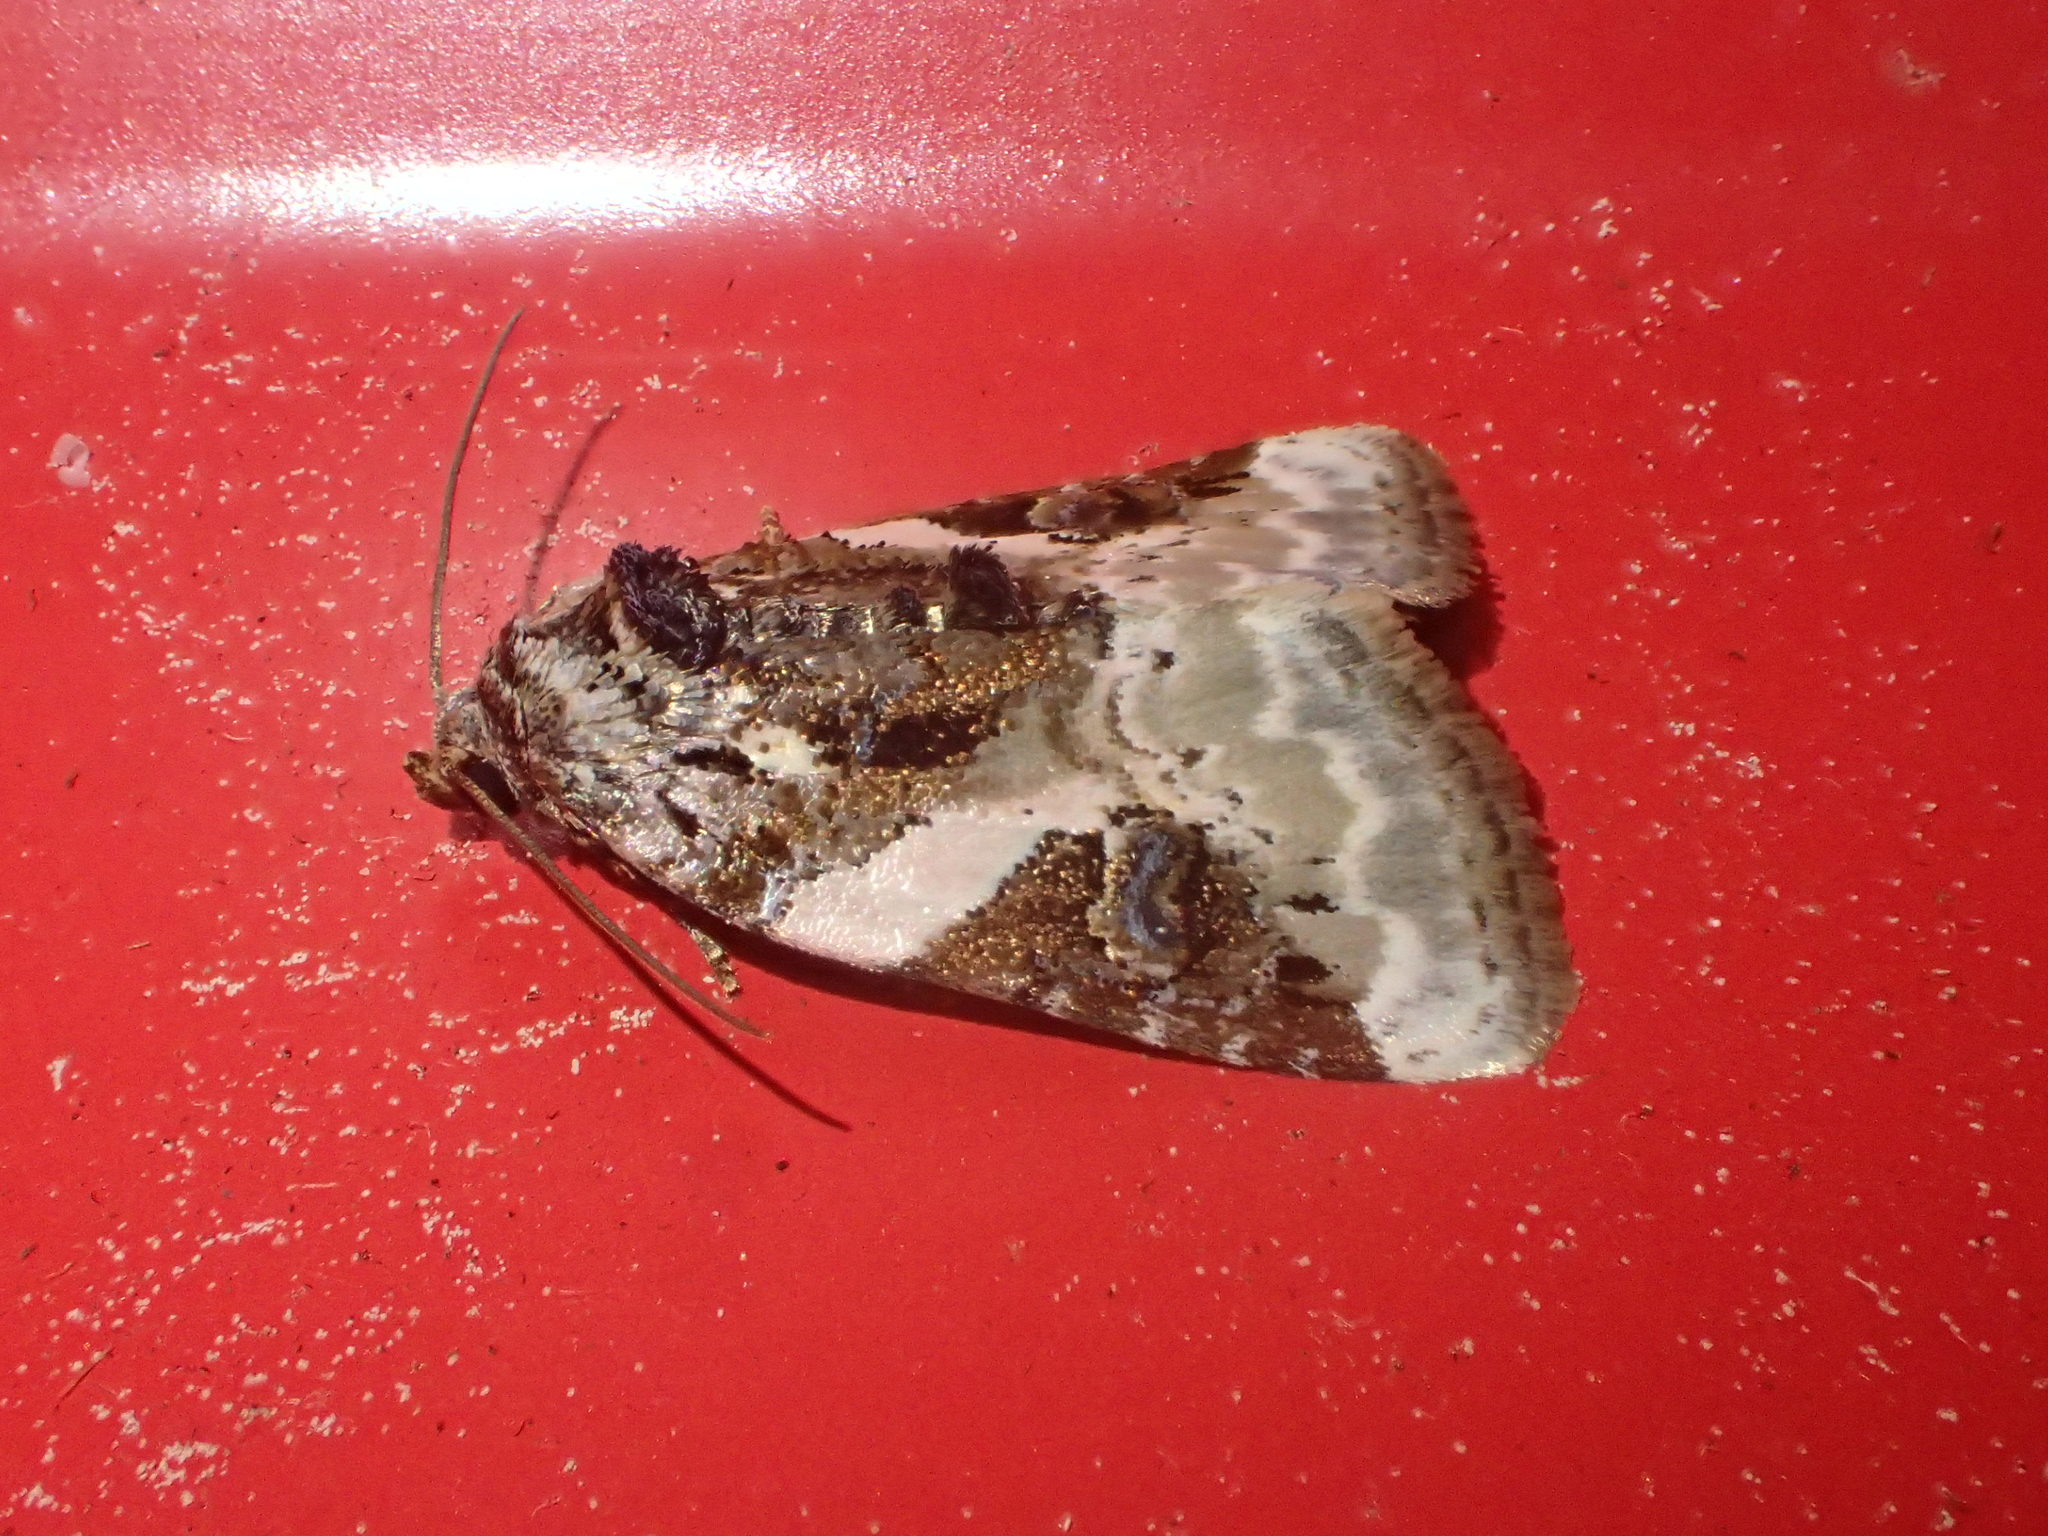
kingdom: Animalia
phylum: Arthropoda
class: Insecta
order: Lepidoptera
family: Noctuidae
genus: Pseudeustrotia
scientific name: Pseudeustrotia carneola
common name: Pink-barred lithacodia moth
